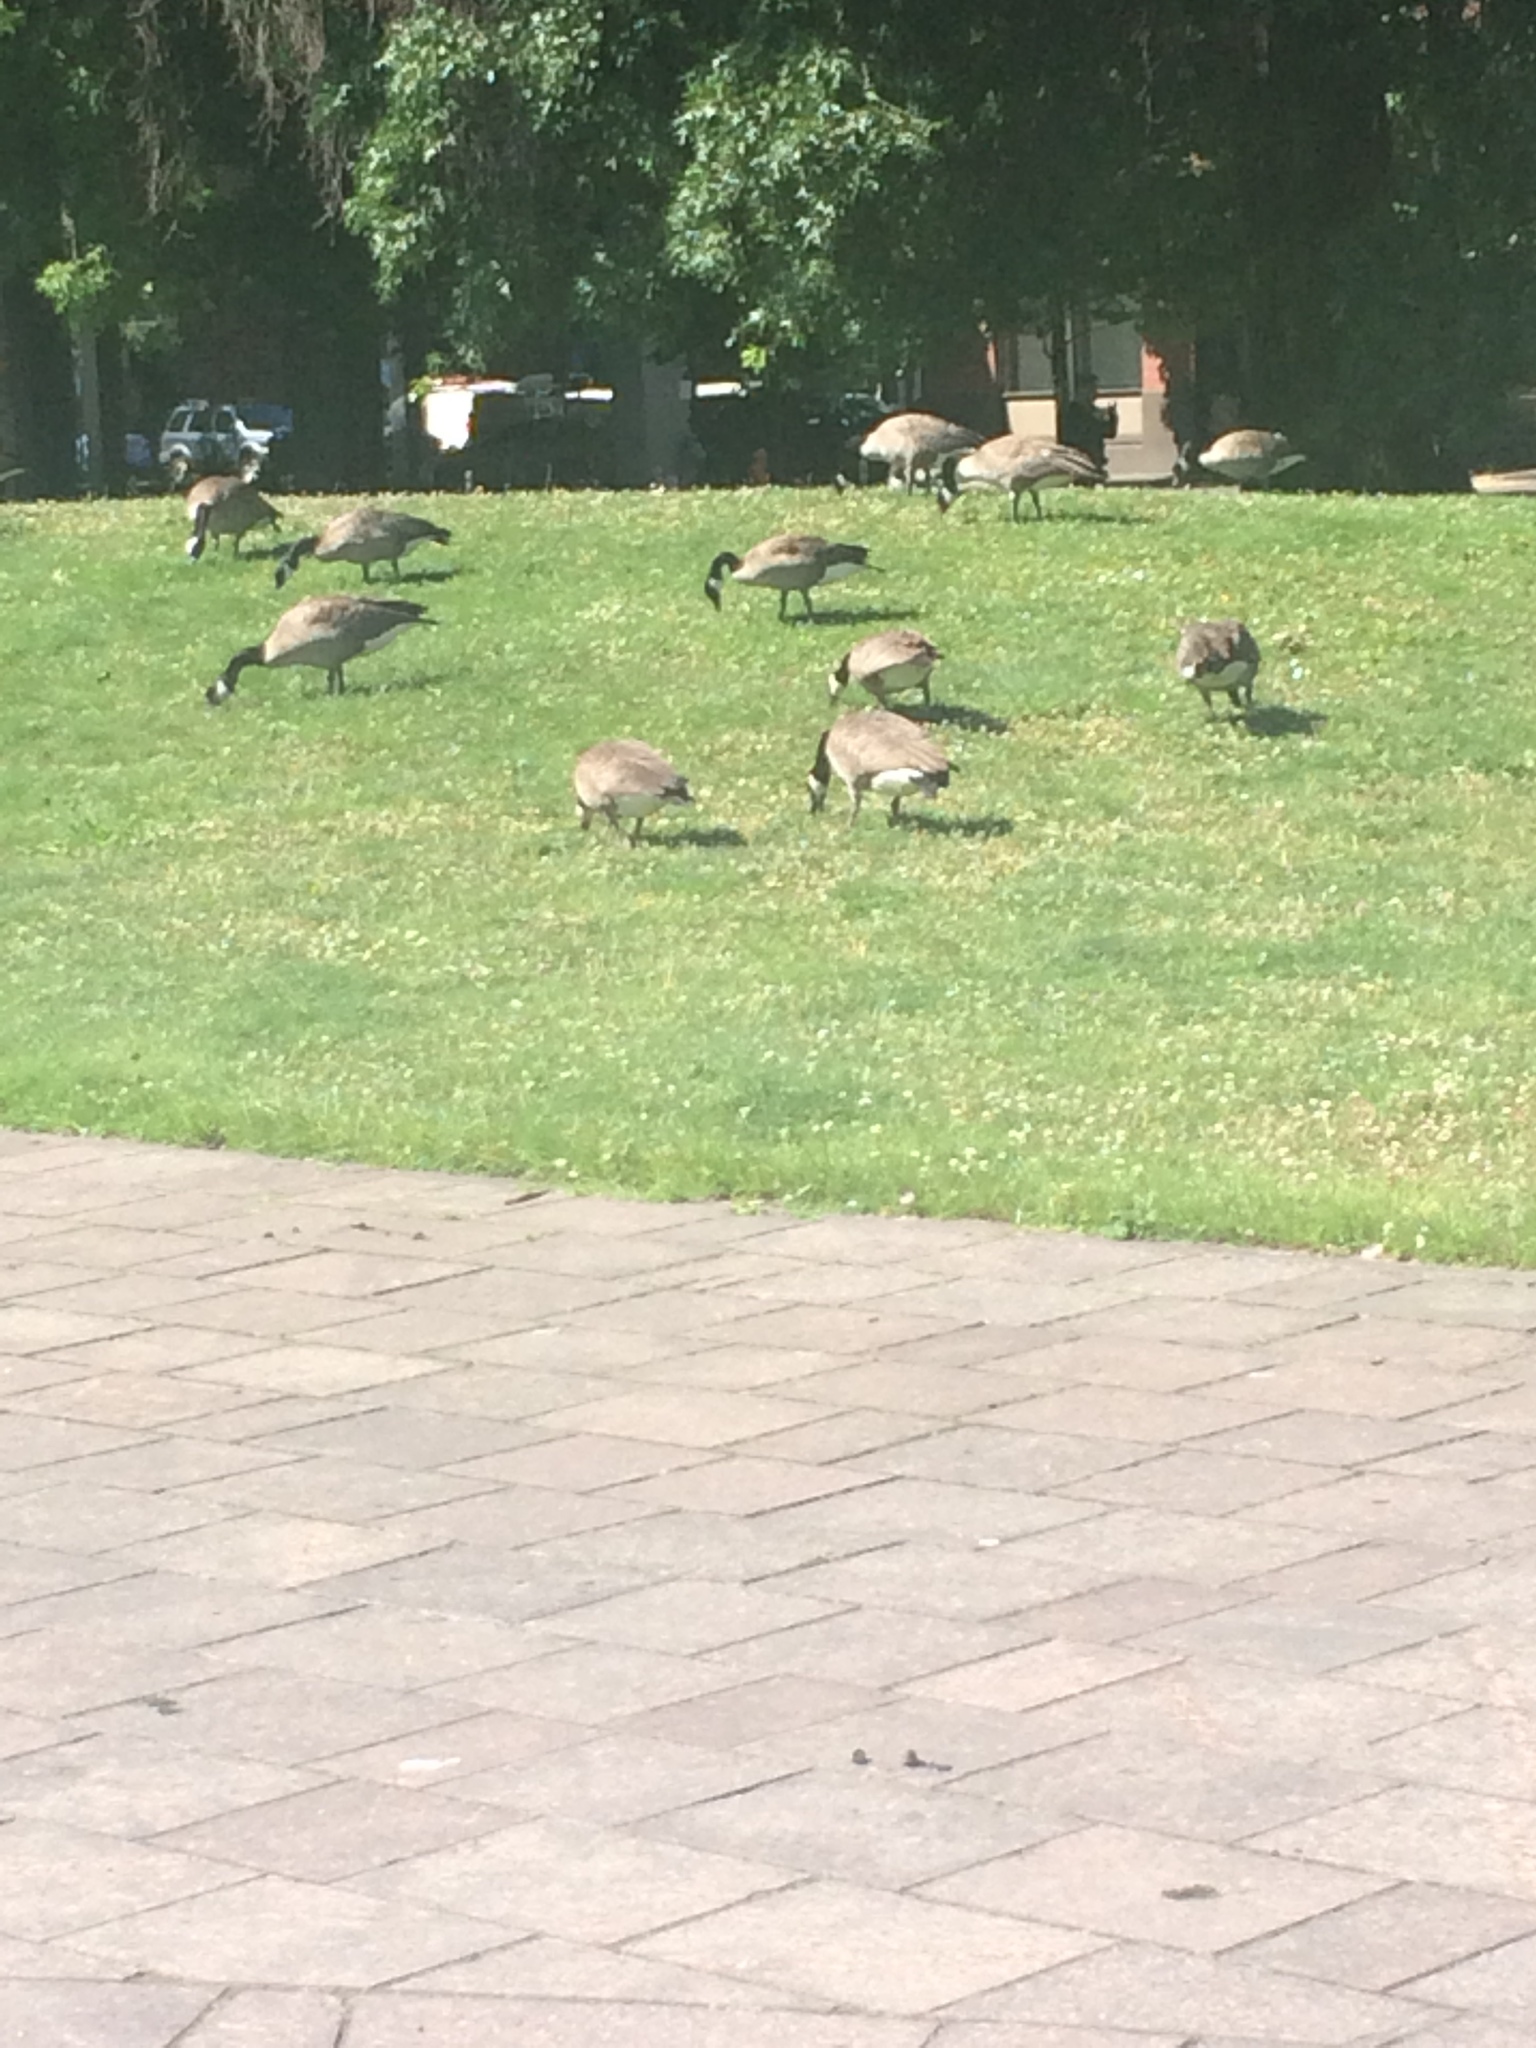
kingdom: Animalia
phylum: Chordata
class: Aves
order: Anseriformes
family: Anatidae
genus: Branta
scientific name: Branta canadensis
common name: Canada goose
